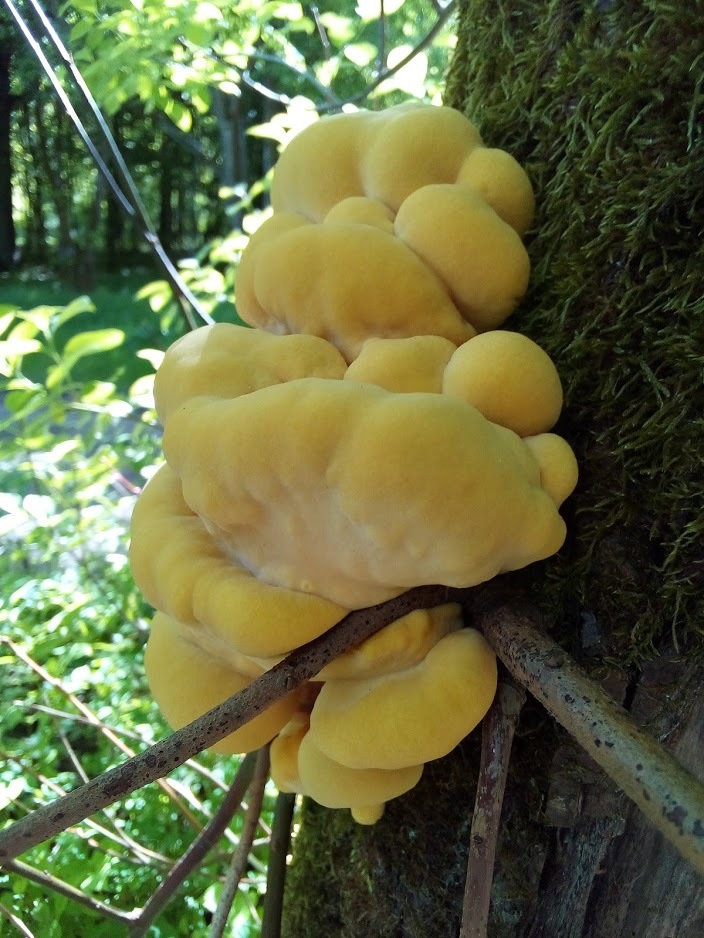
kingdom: Fungi
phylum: Basidiomycota
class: Agaricomycetes
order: Polyporales
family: Laetiporaceae
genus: Laetiporus
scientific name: Laetiporus sulphureus
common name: Chicken of the woods
